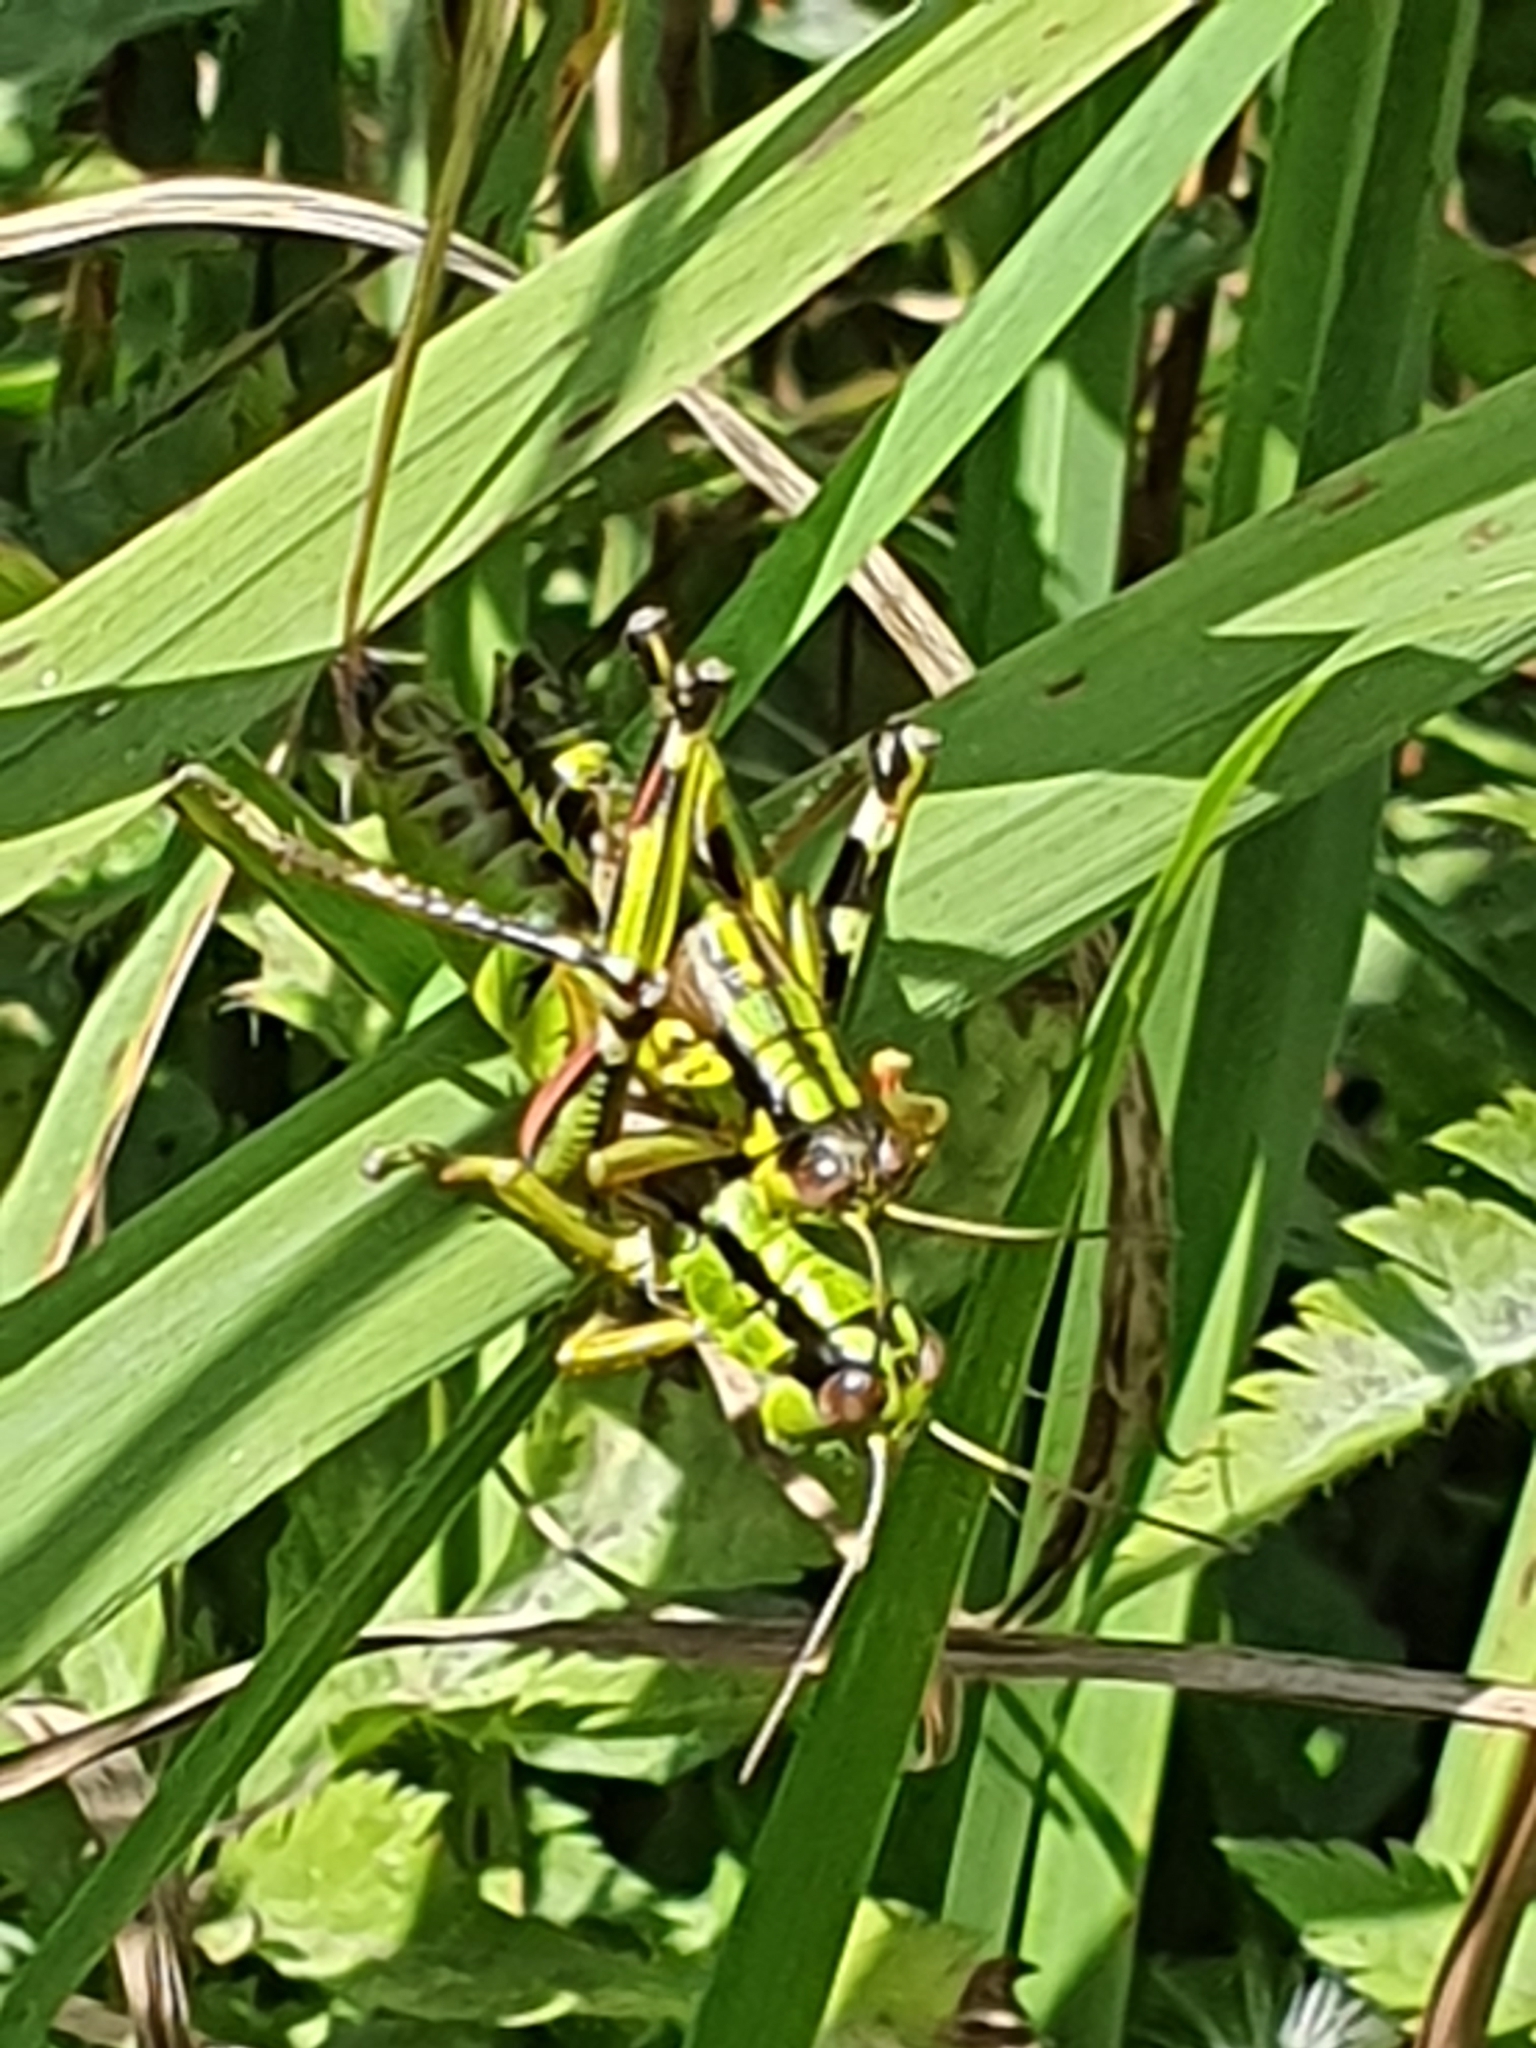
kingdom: Animalia
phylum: Arthropoda
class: Insecta
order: Orthoptera
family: Acrididae
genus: Miramella
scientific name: Miramella alpina
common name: Green mountain grasshopper
